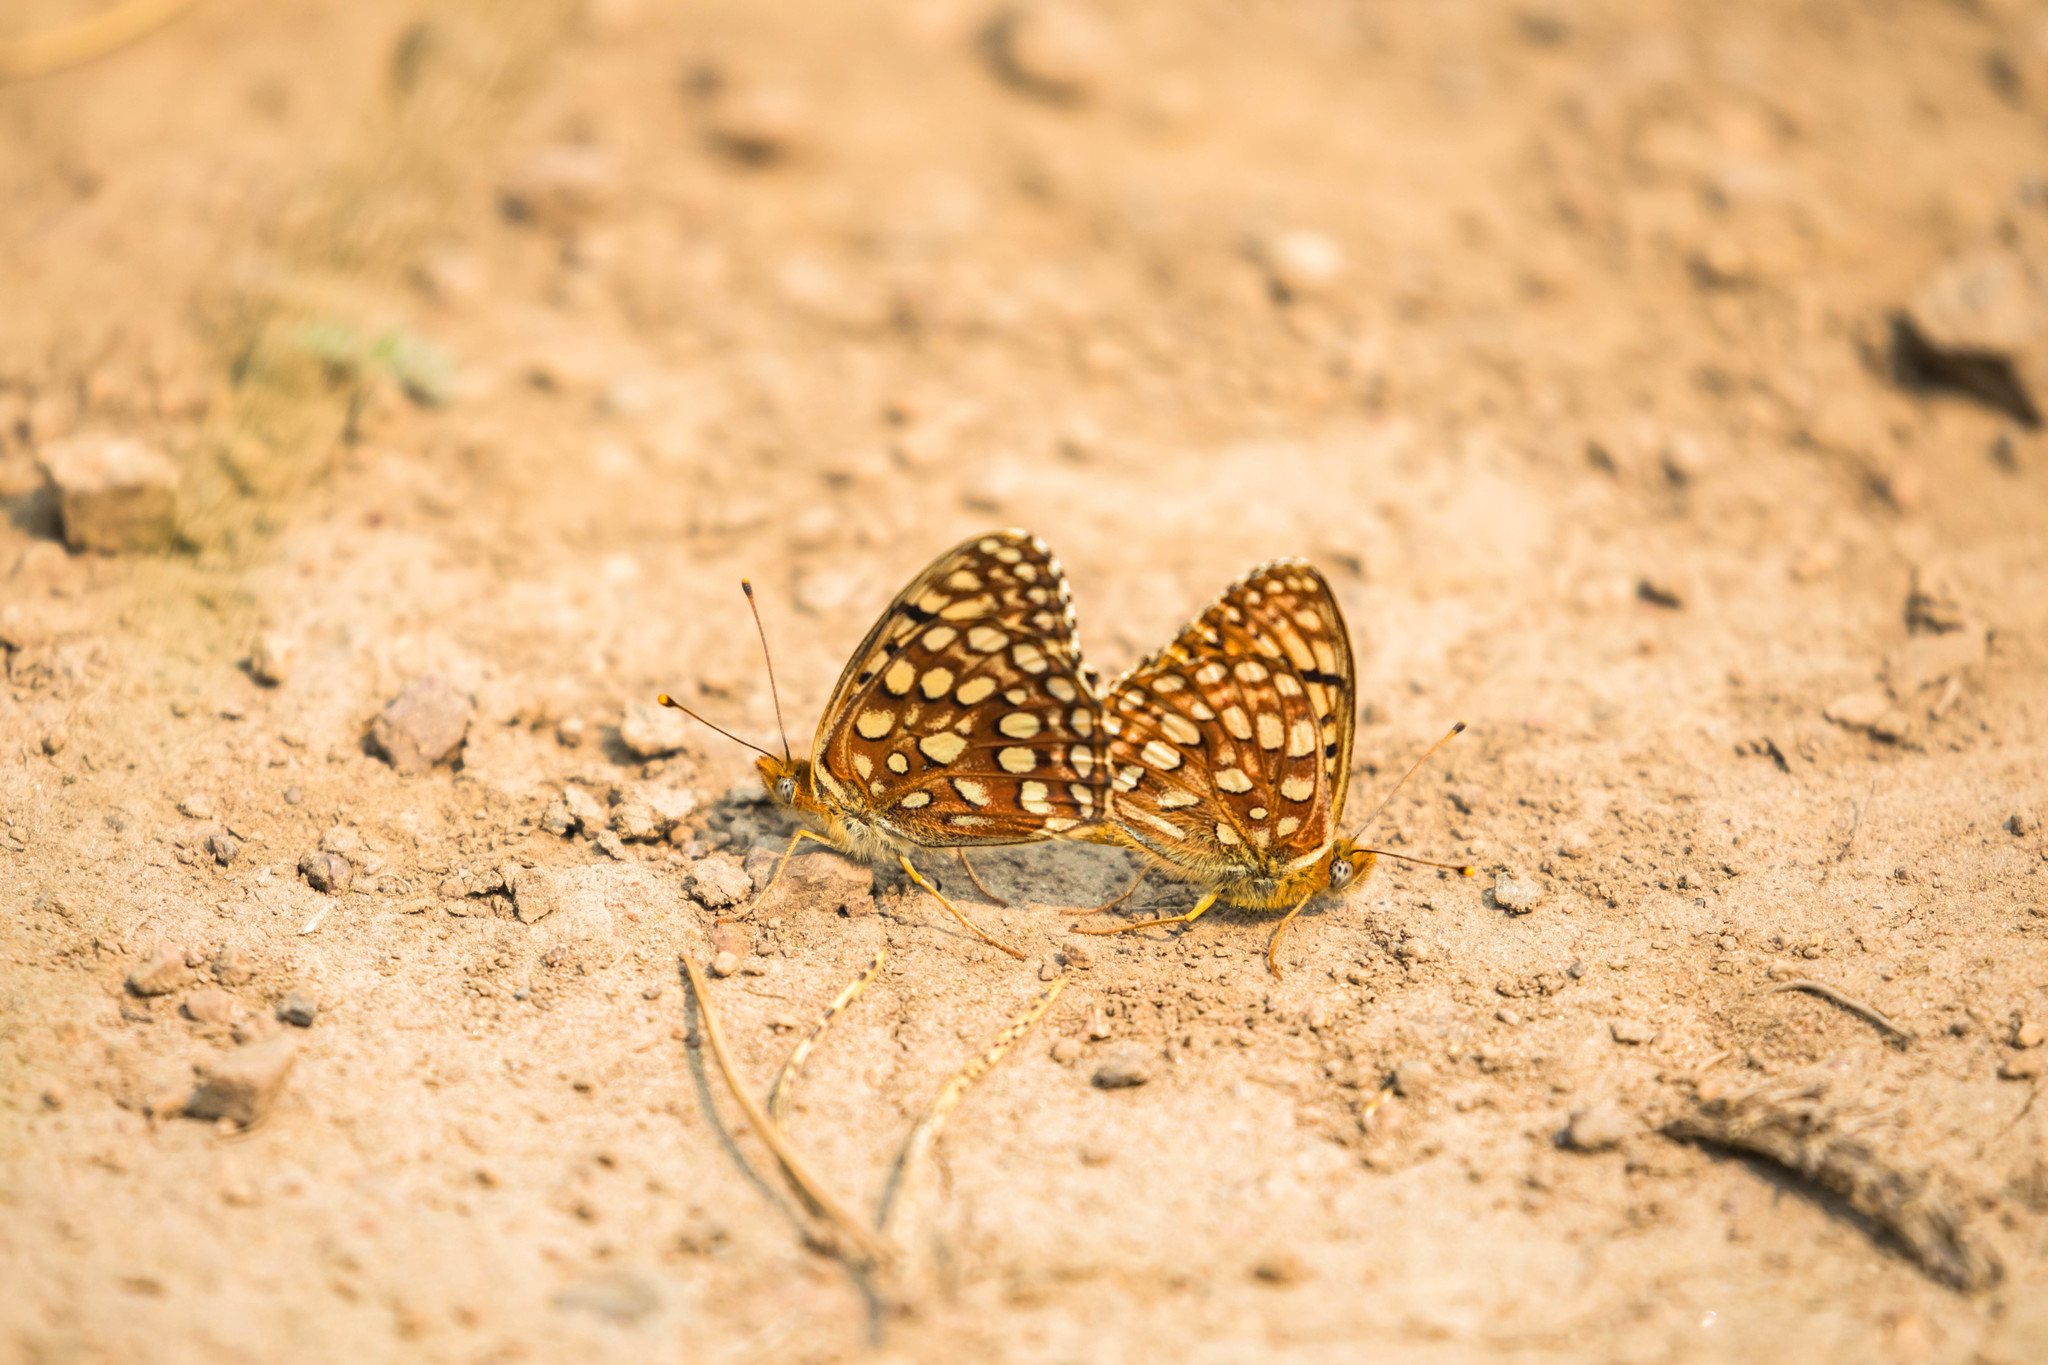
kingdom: Animalia
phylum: Arthropoda
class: Insecta
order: Lepidoptera
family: Nymphalidae
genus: Speyeria
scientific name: Speyeria atlantis
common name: Atlantis fritillary
